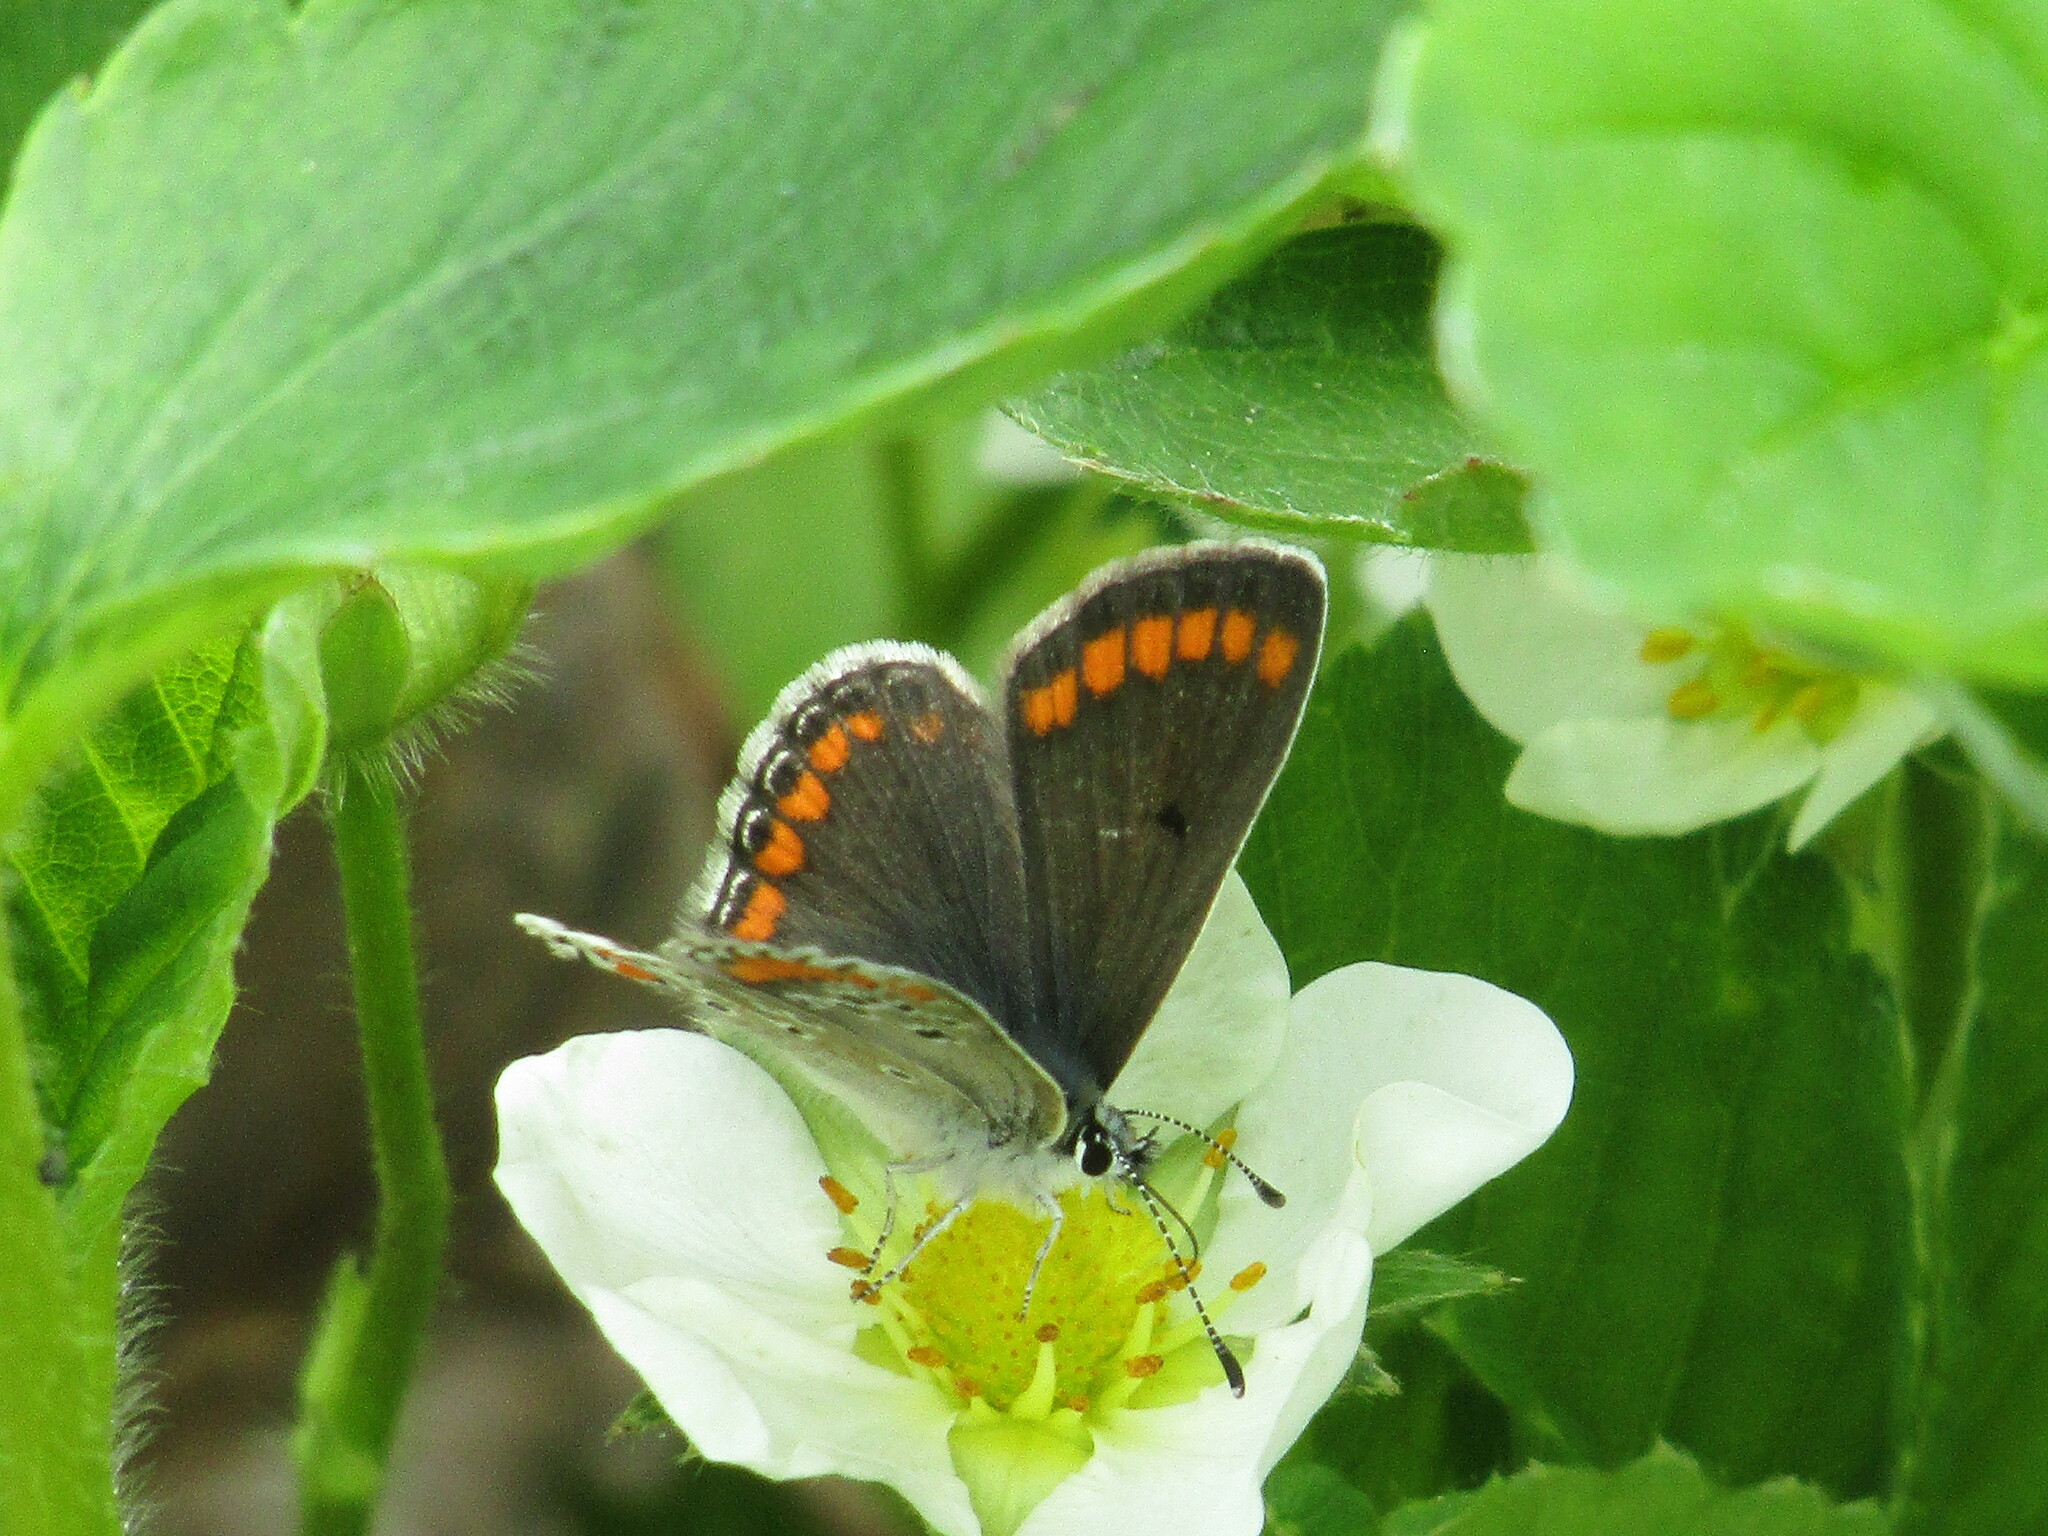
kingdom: Animalia
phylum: Arthropoda
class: Insecta
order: Lepidoptera
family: Lycaenidae
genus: Aricia
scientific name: Aricia agestis
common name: Brown argus
